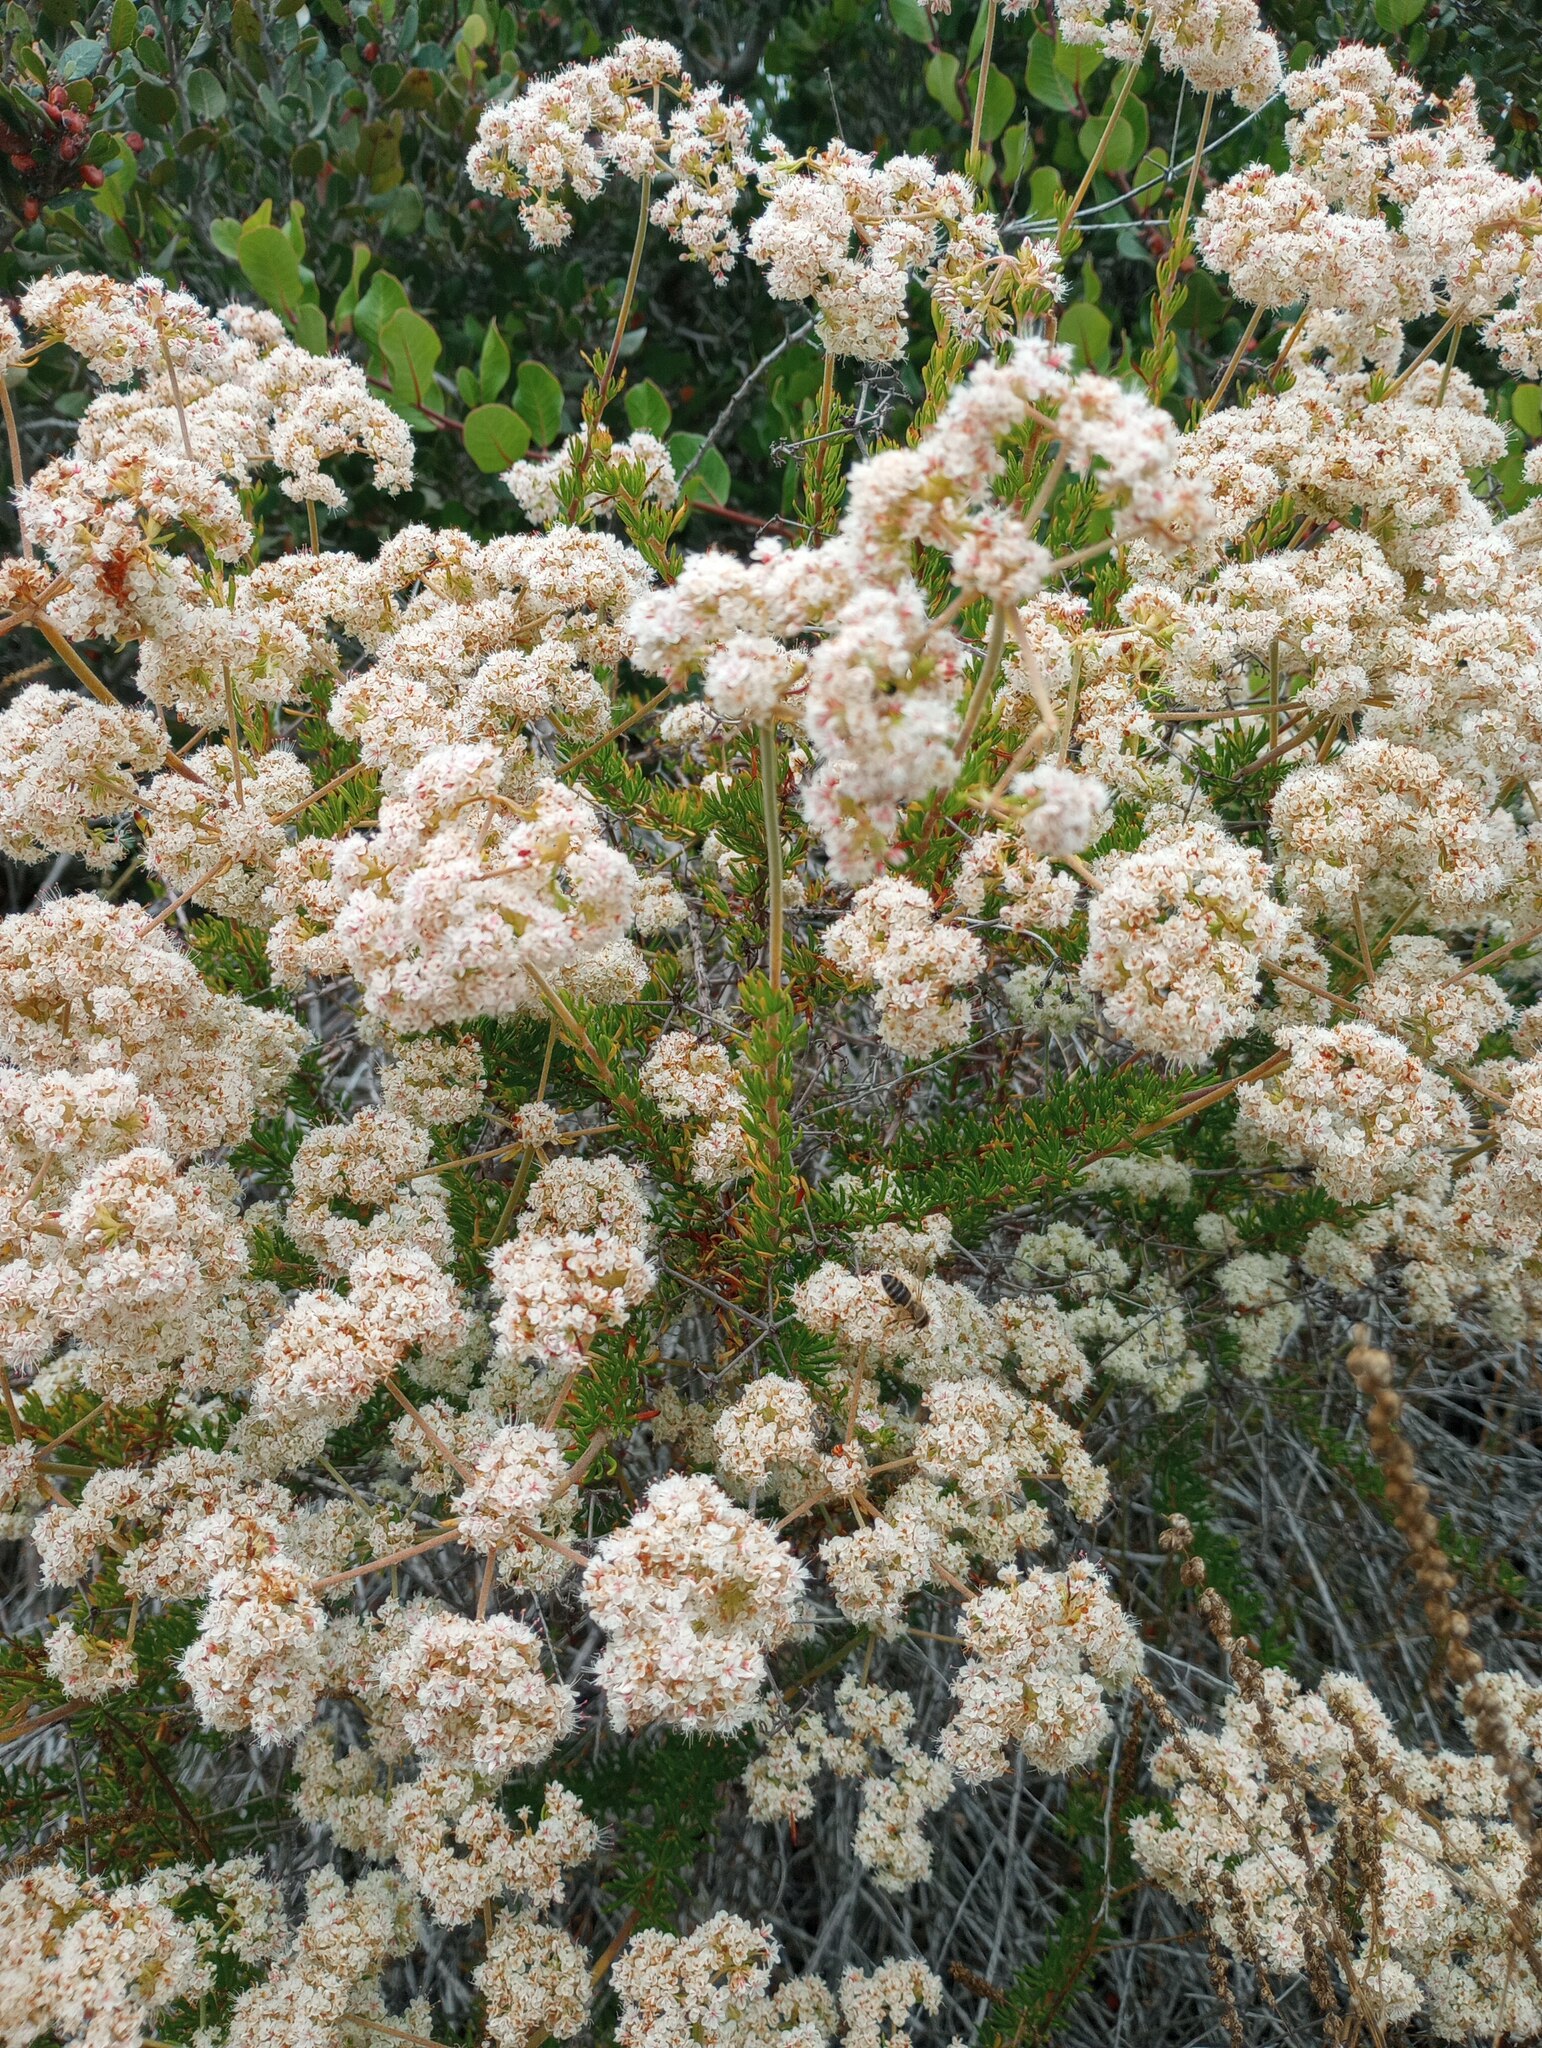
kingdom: Plantae
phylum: Tracheophyta
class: Magnoliopsida
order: Caryophyllales
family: Polygonaceae
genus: Eriogonum
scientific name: Eriogonum fasciculatum
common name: California wild buckwheat
